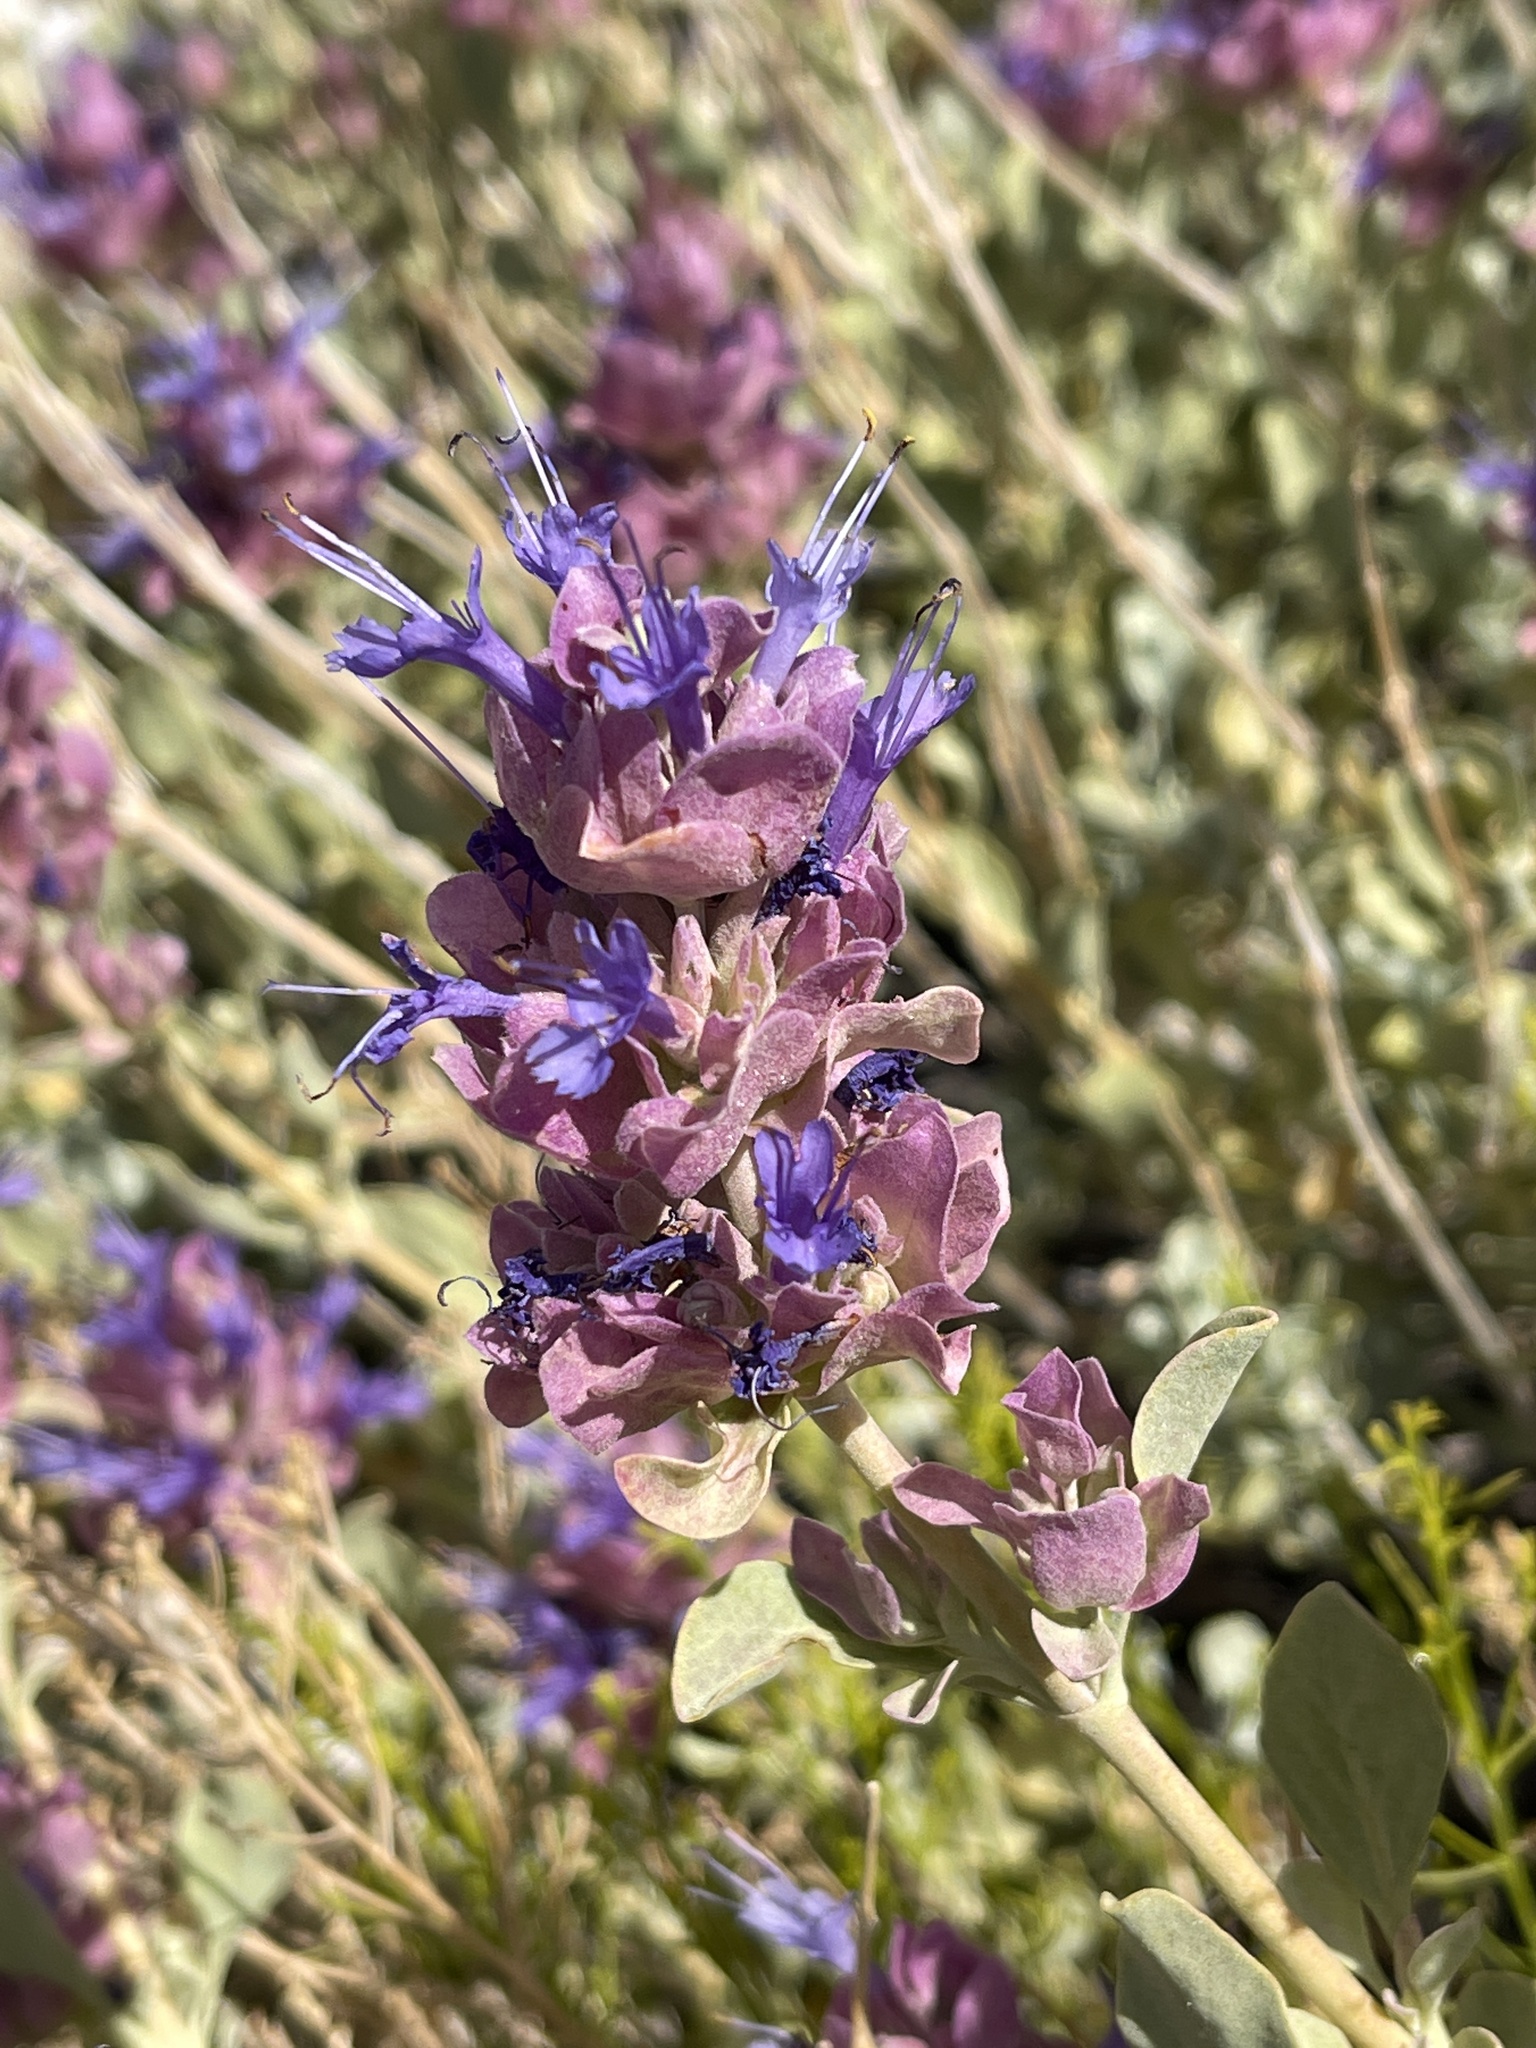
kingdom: Plantae
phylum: Tracheophyta
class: Magnoliopsida
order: Lamiales
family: Lamiaceae
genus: Salvia
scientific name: Salvia pachyphylla
